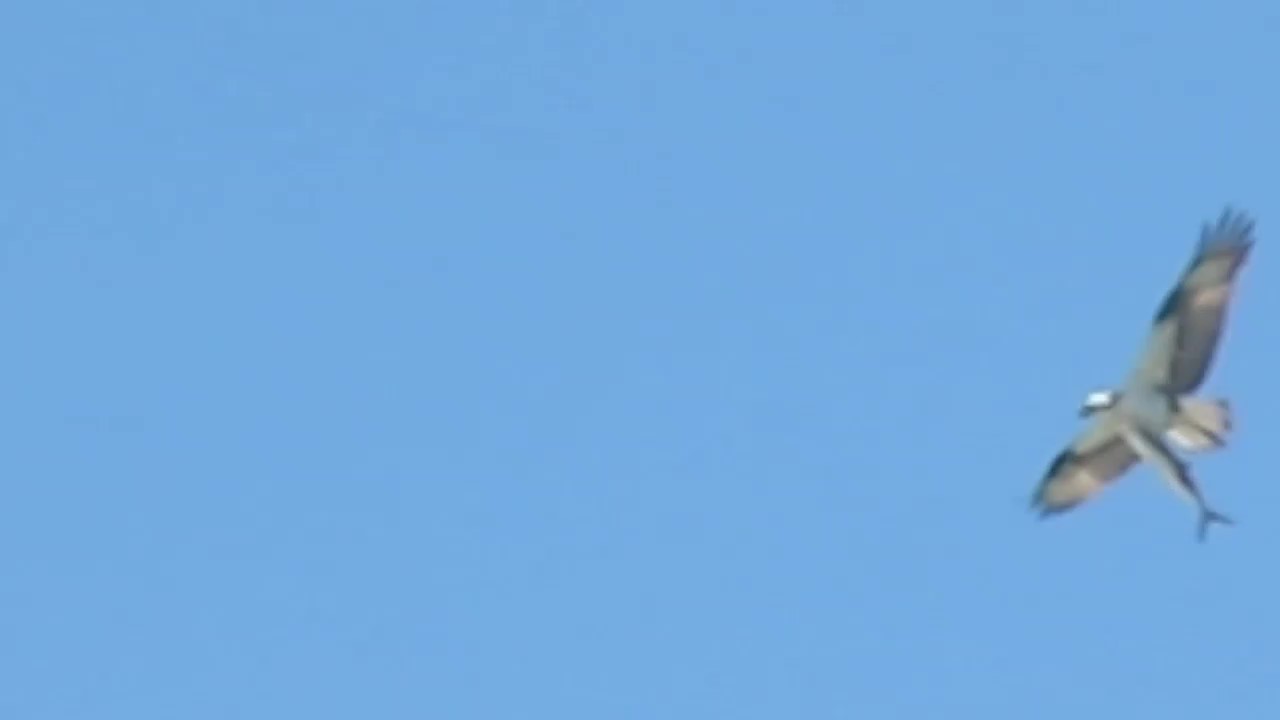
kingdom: Animalia
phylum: Chordata
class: Aves
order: Accipitriformes
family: Pandionidae
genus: Pandion
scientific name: Pandion haliaetus
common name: Osprey
